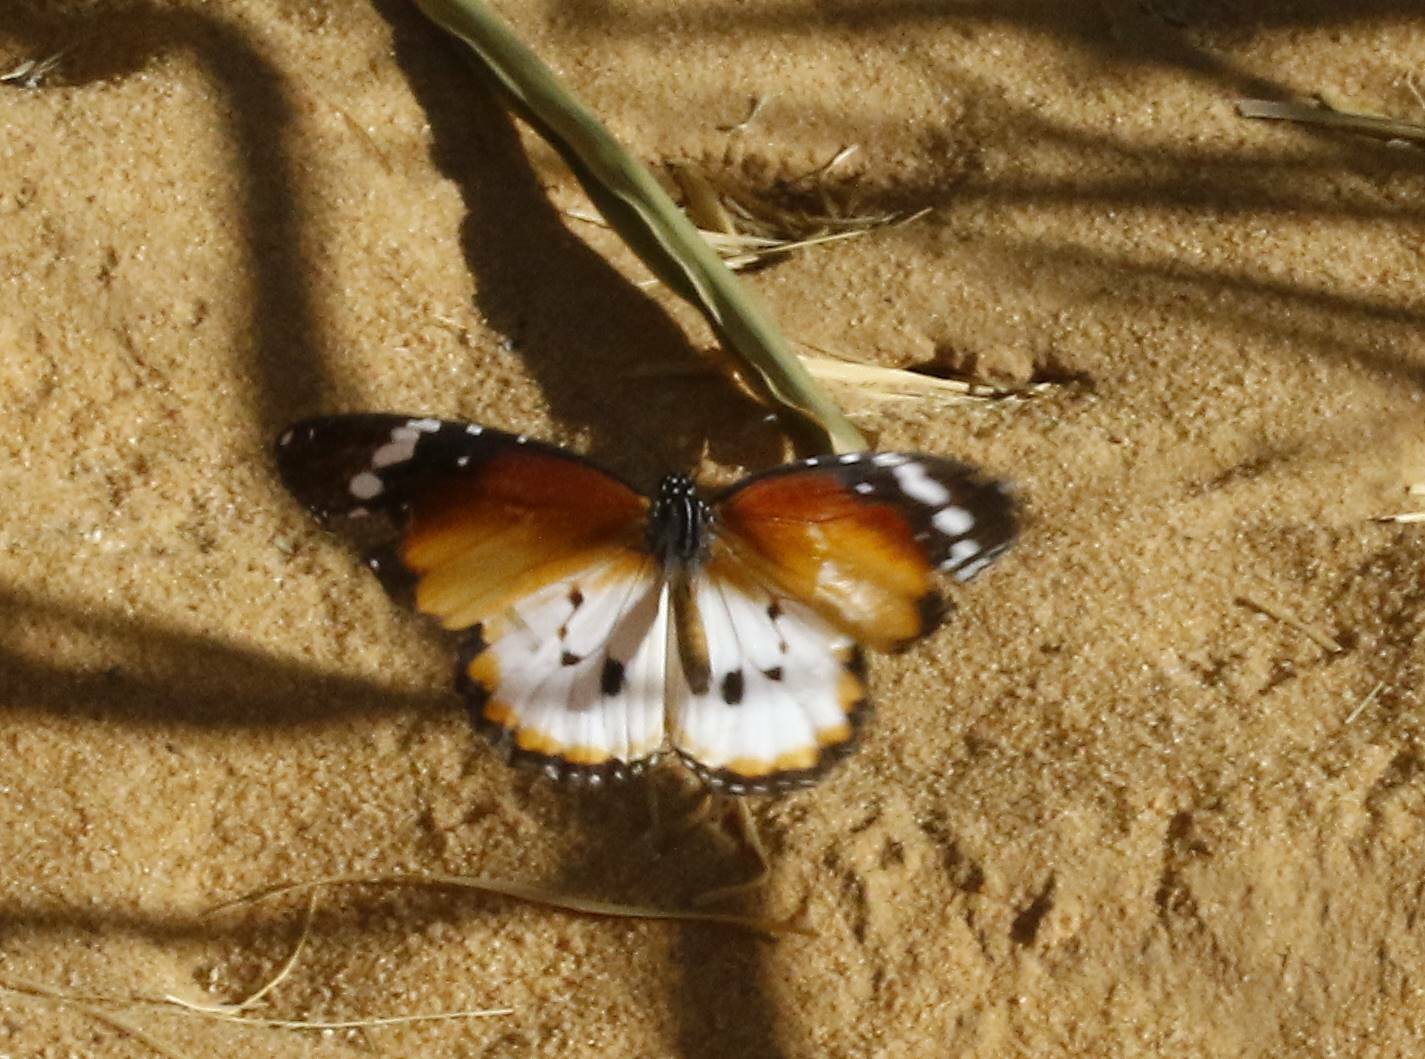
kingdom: Animalia
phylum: Arthropoda
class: Insecta
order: Lepidoptera
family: Nymphalidae
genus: Danaus
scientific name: Danaus chrysippus
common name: Plain tiger
